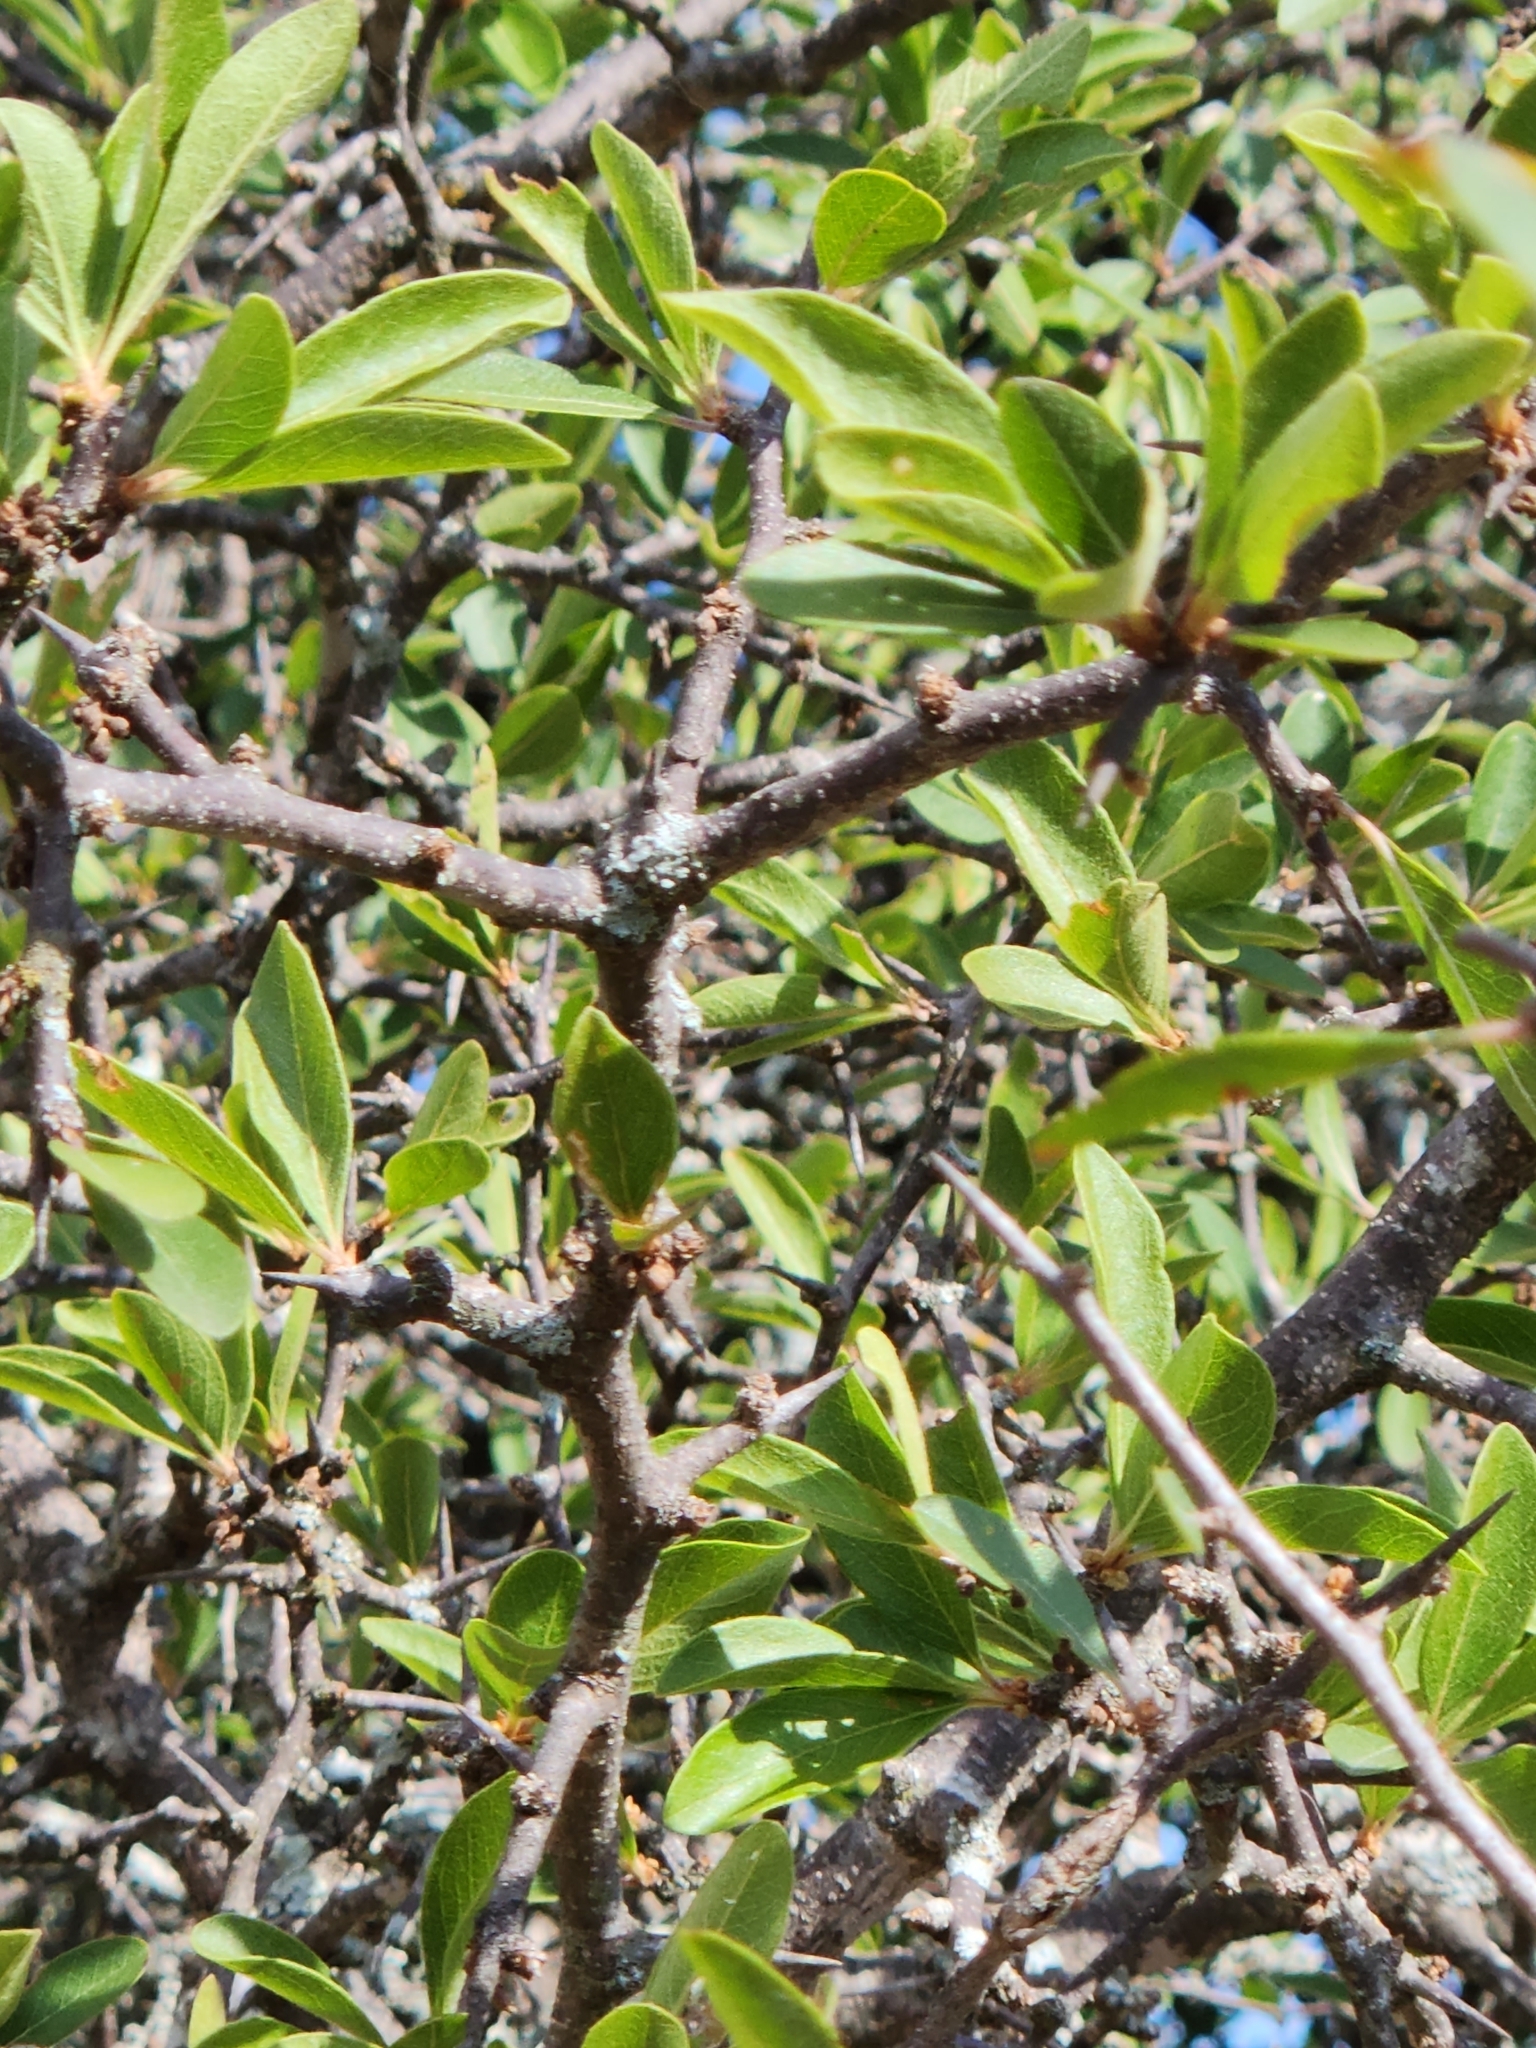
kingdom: Plantae
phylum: Tracheophyta
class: Magnoliopsida
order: Ericales
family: Sapotaceae
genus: Sideroxylon
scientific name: Sideroxylon lanuginosum
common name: Chittamwood
